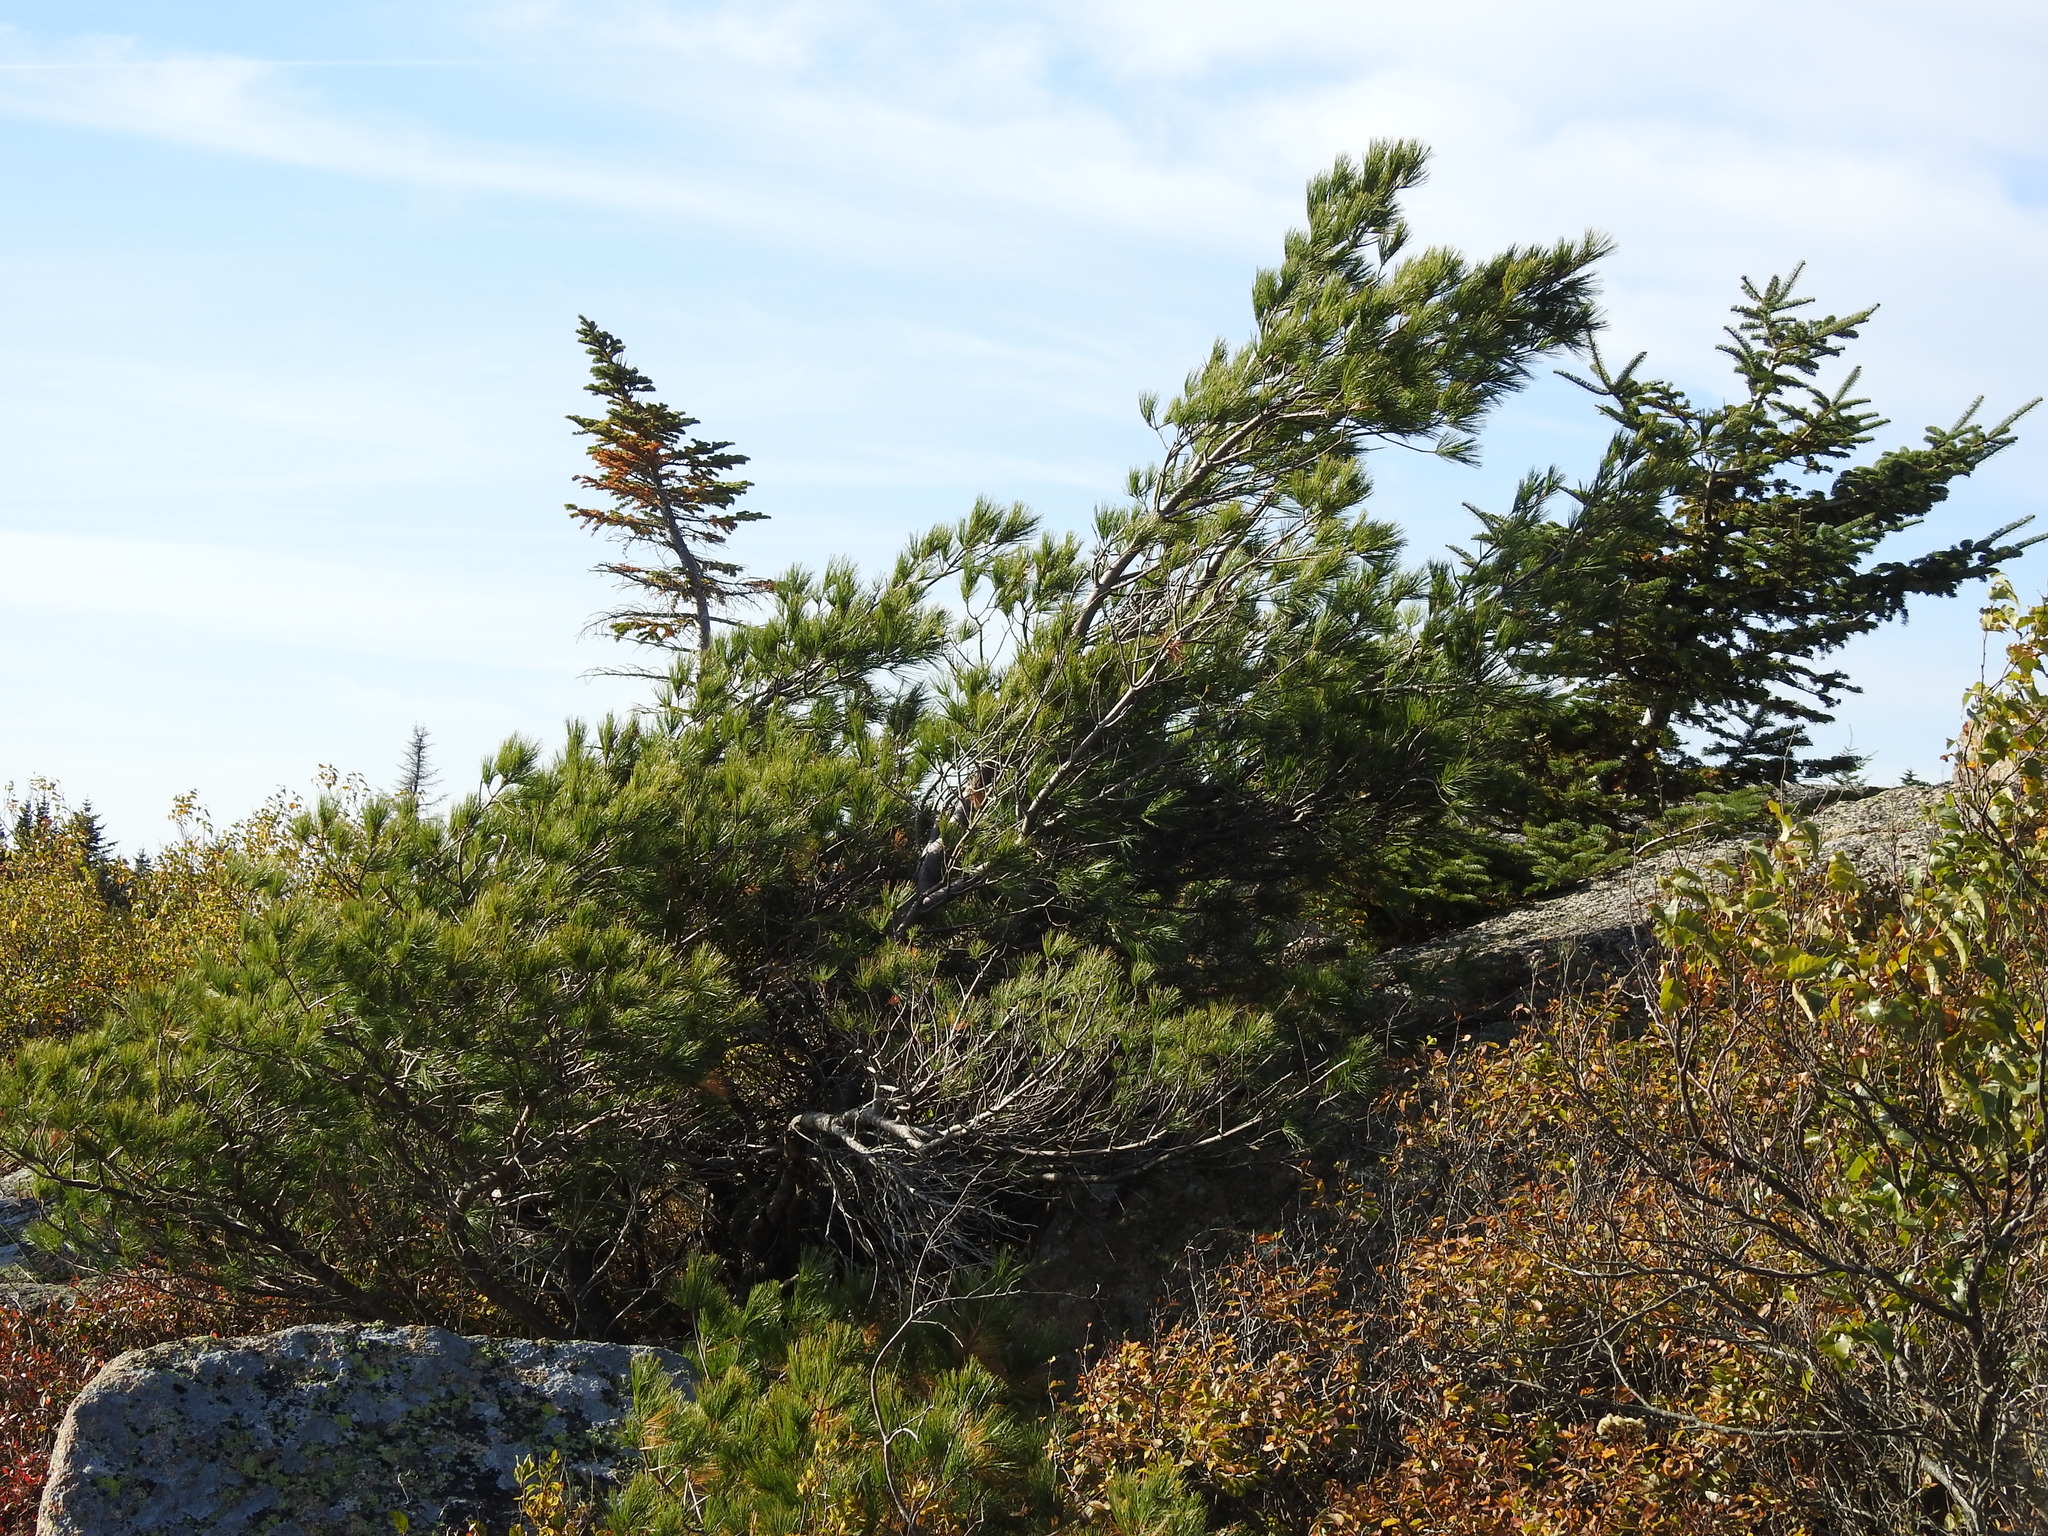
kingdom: Plantae
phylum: Tracheophyta
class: Pinopsida
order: Pinales
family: Pinaceae
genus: Pinus
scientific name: Pinus strobus
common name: Weymouth pine
